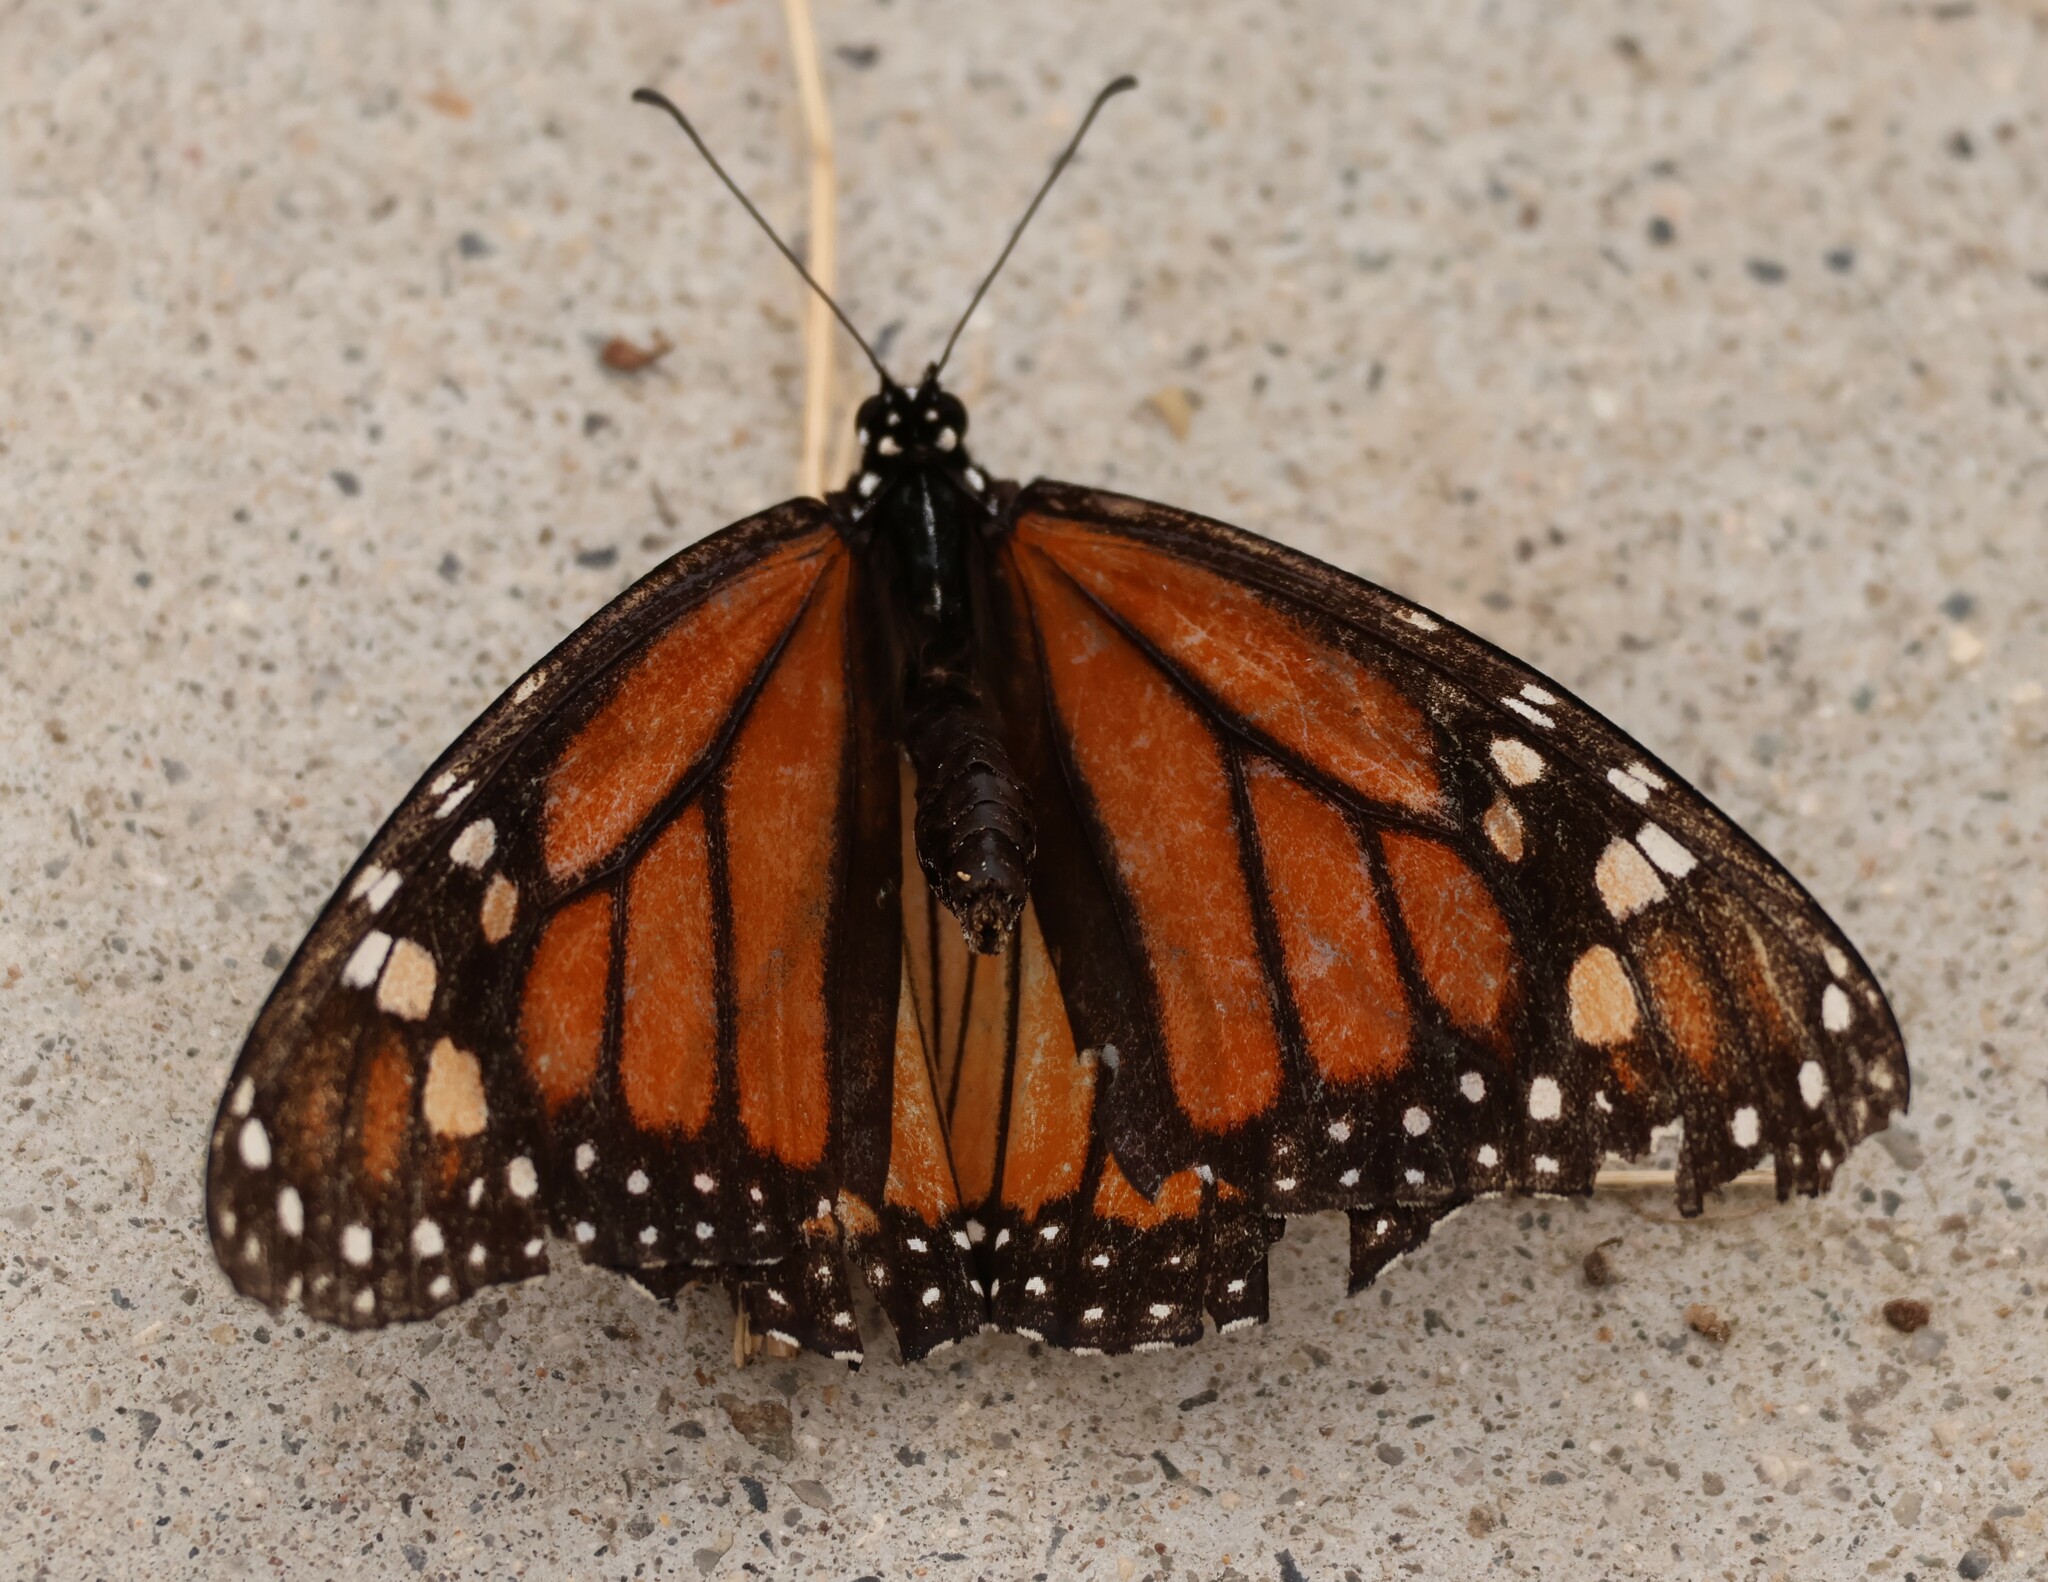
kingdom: Animalia
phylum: Arthropoda
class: Insecta
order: Lepidoptera
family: Nymphalidae
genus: Danaus
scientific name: Danaus plexippus
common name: Monarch
